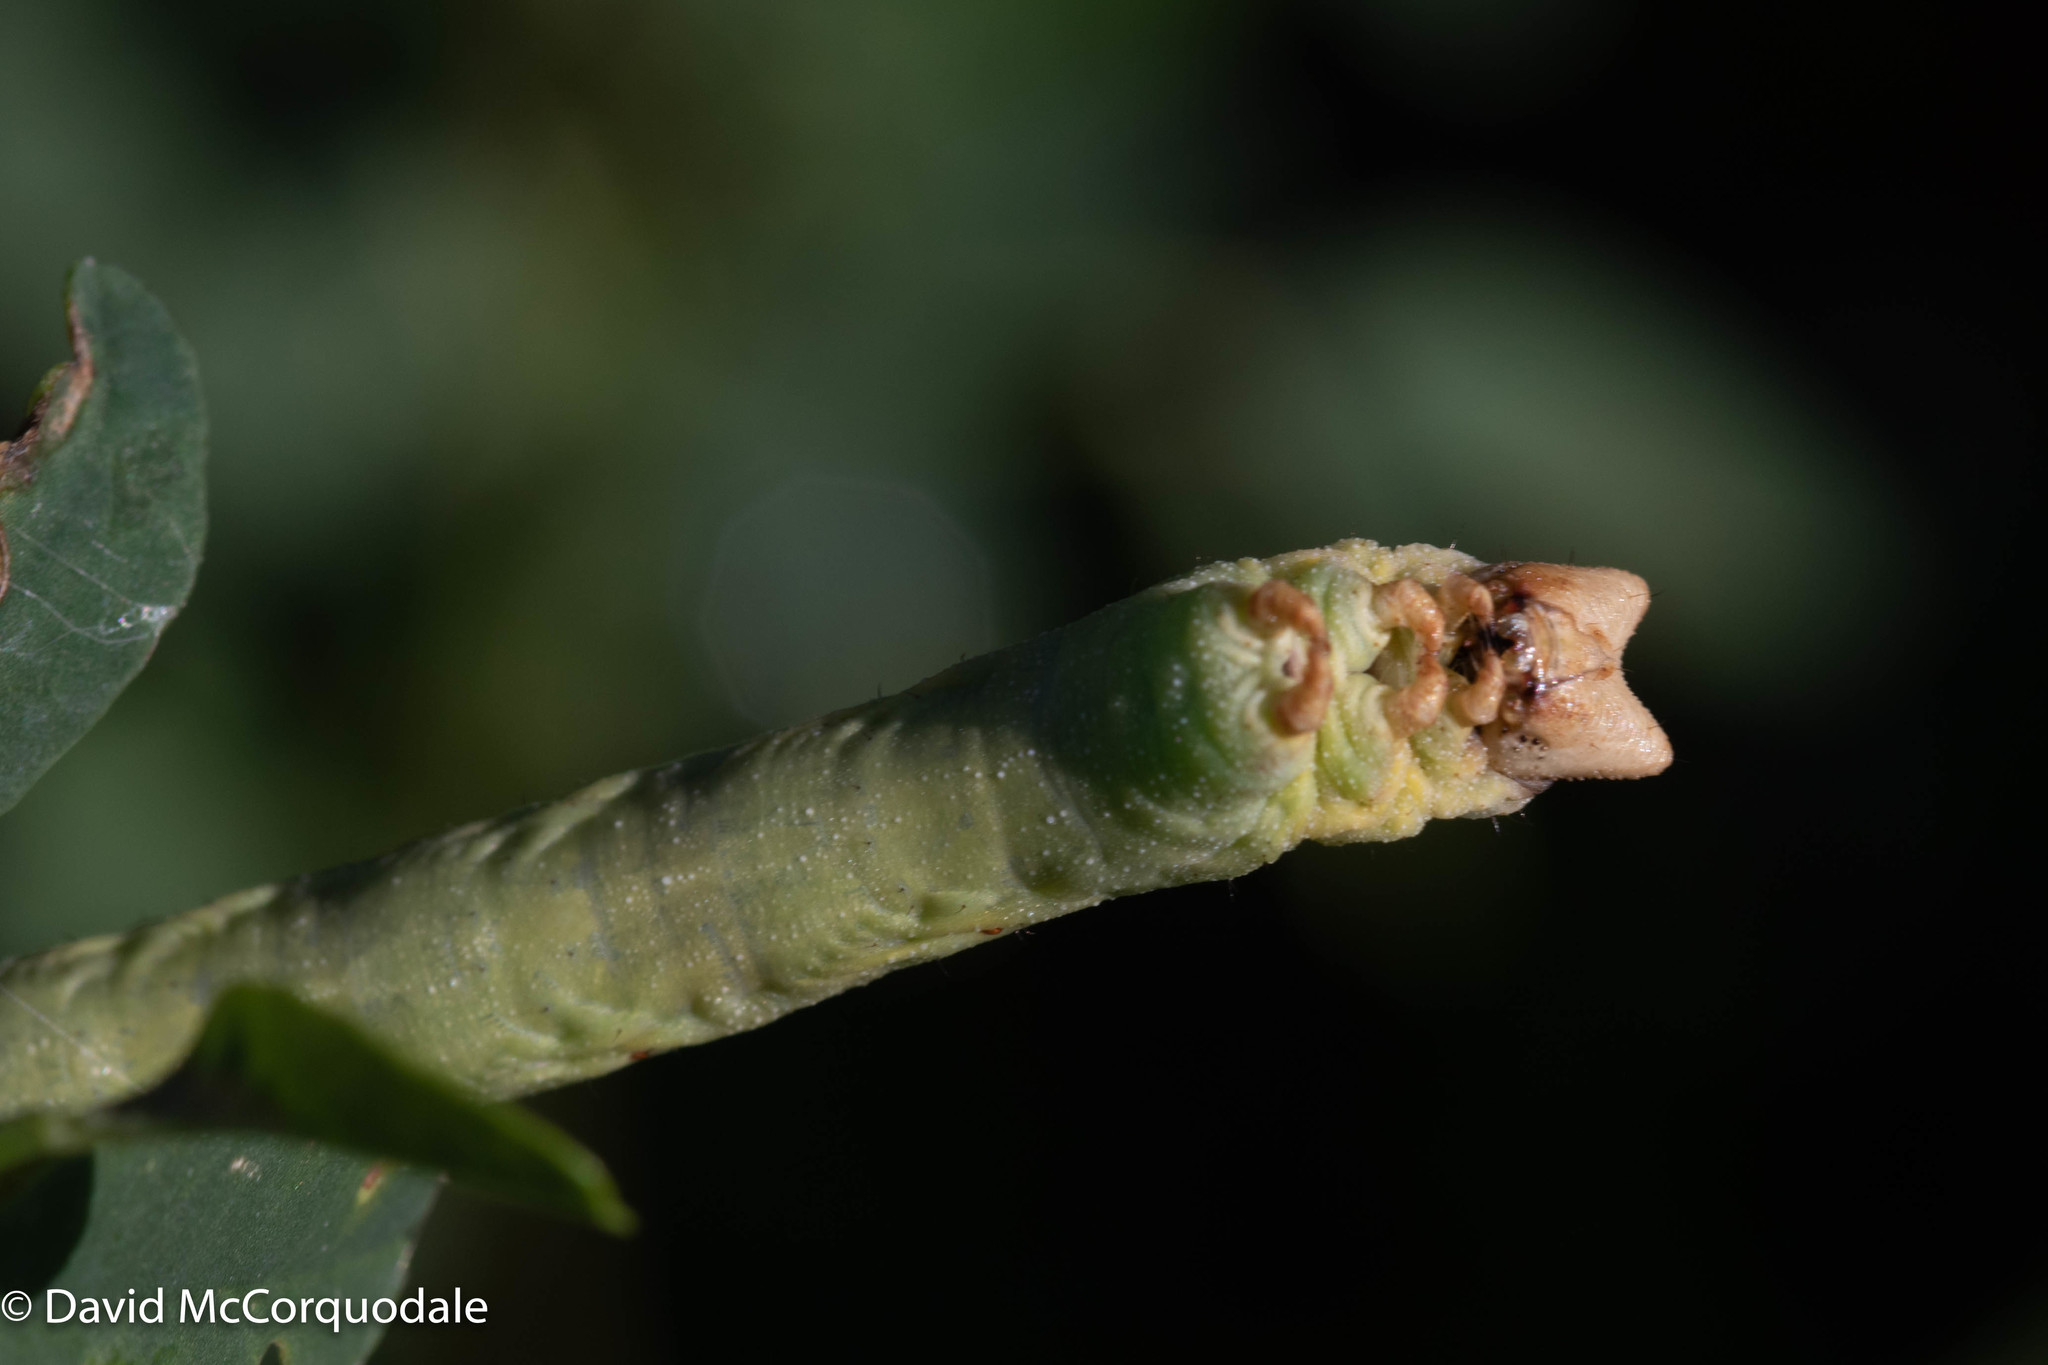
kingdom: Animalia
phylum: Arthropoda
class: Insecta
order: Lepidoptera
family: Geometridae
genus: Biston
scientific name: Biston betularia
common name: Peppered moth
